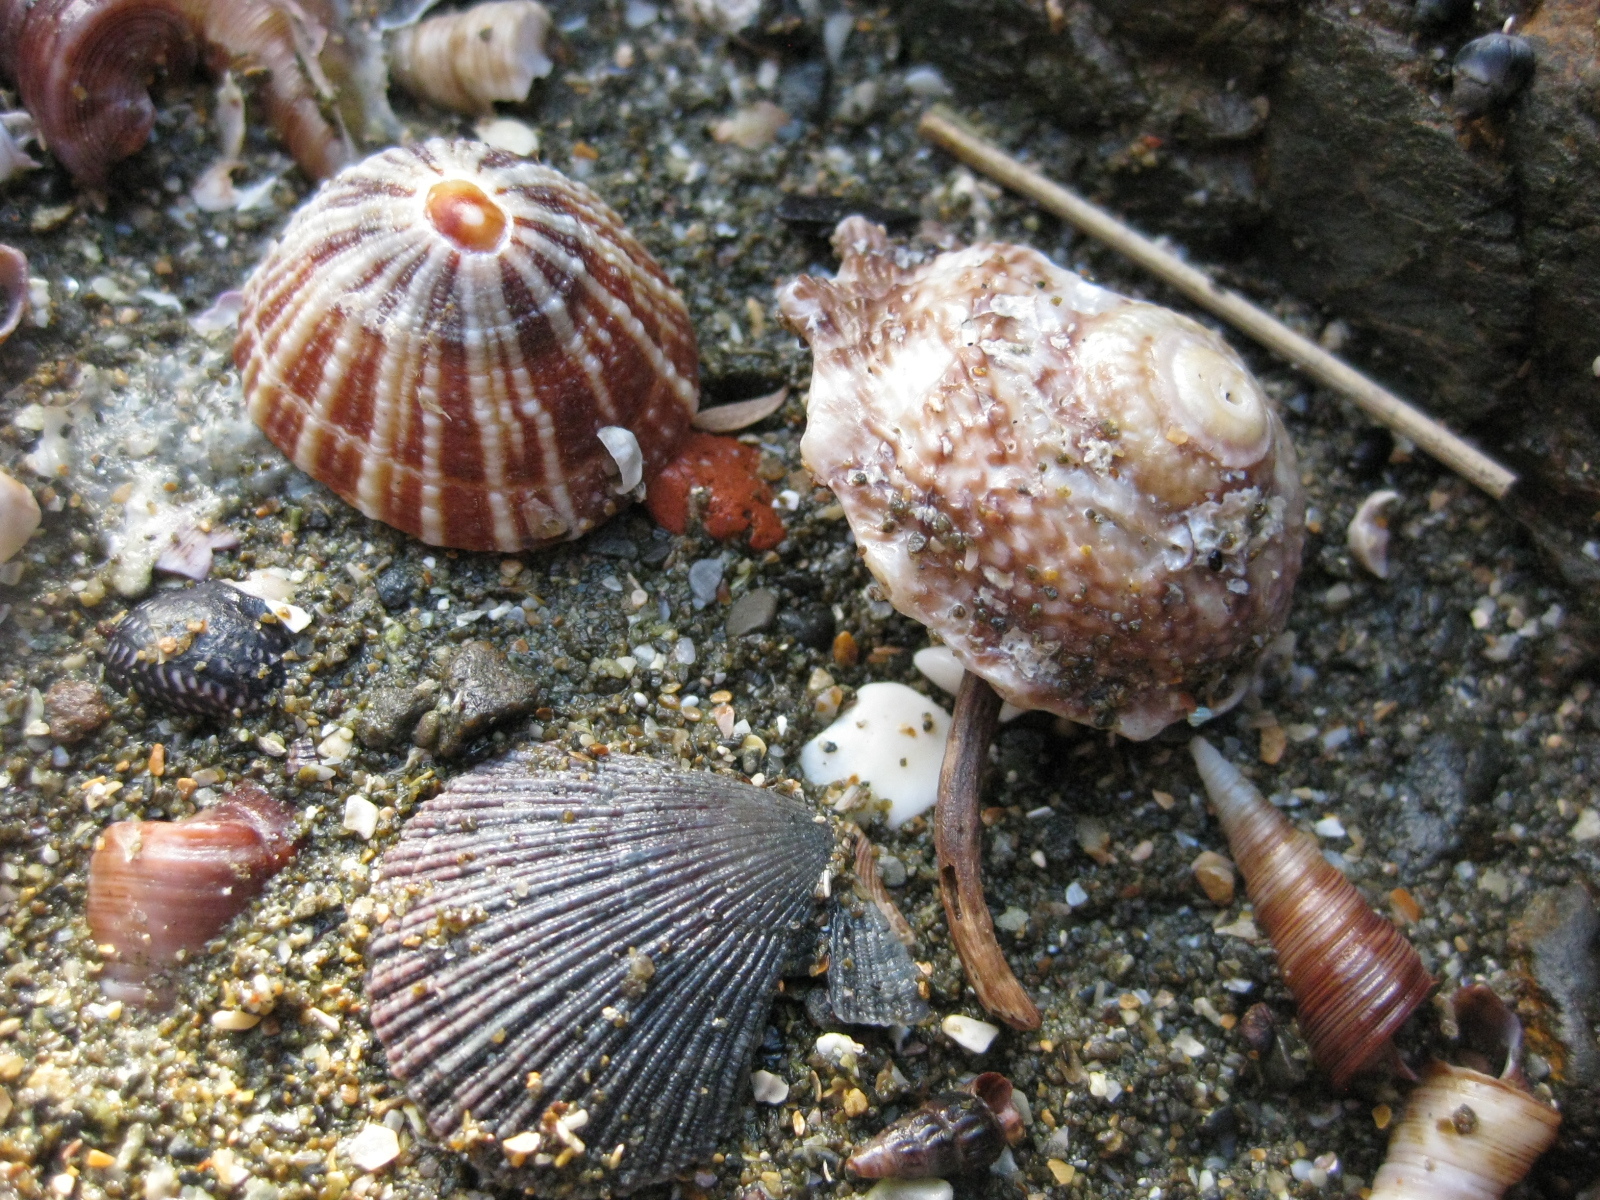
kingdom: Animalia
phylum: Mollusca
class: Gastropoda
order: Trochida
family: Turbinidae
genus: Astraea
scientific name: Astraea heliotropium
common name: Sun shell
